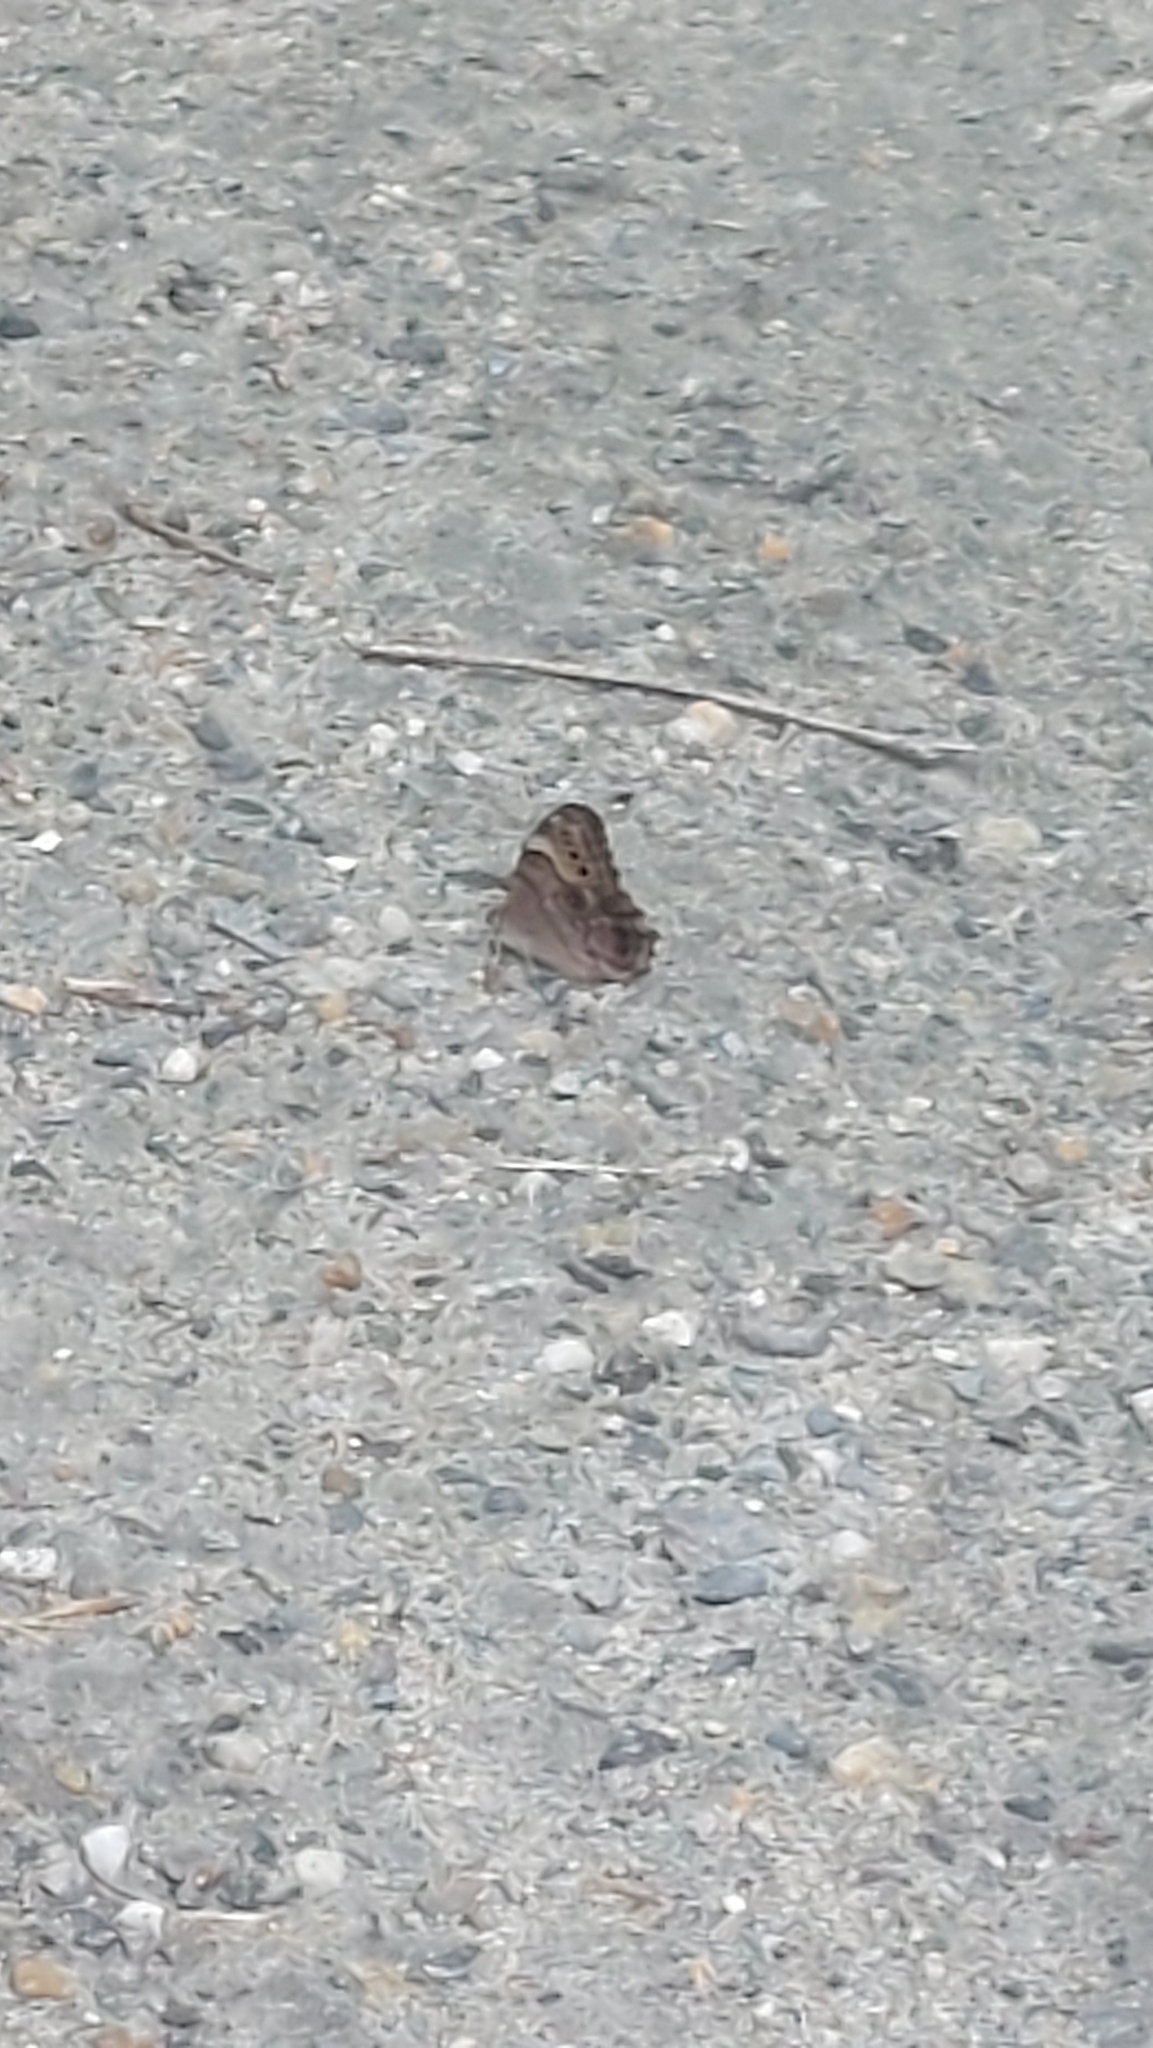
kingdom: Animalia
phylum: Arthropoda
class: Insecta
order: Lepidoptera
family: Nymphalidae
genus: Lethe
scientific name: Lethe anthedon
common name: Northern pearly-eye
